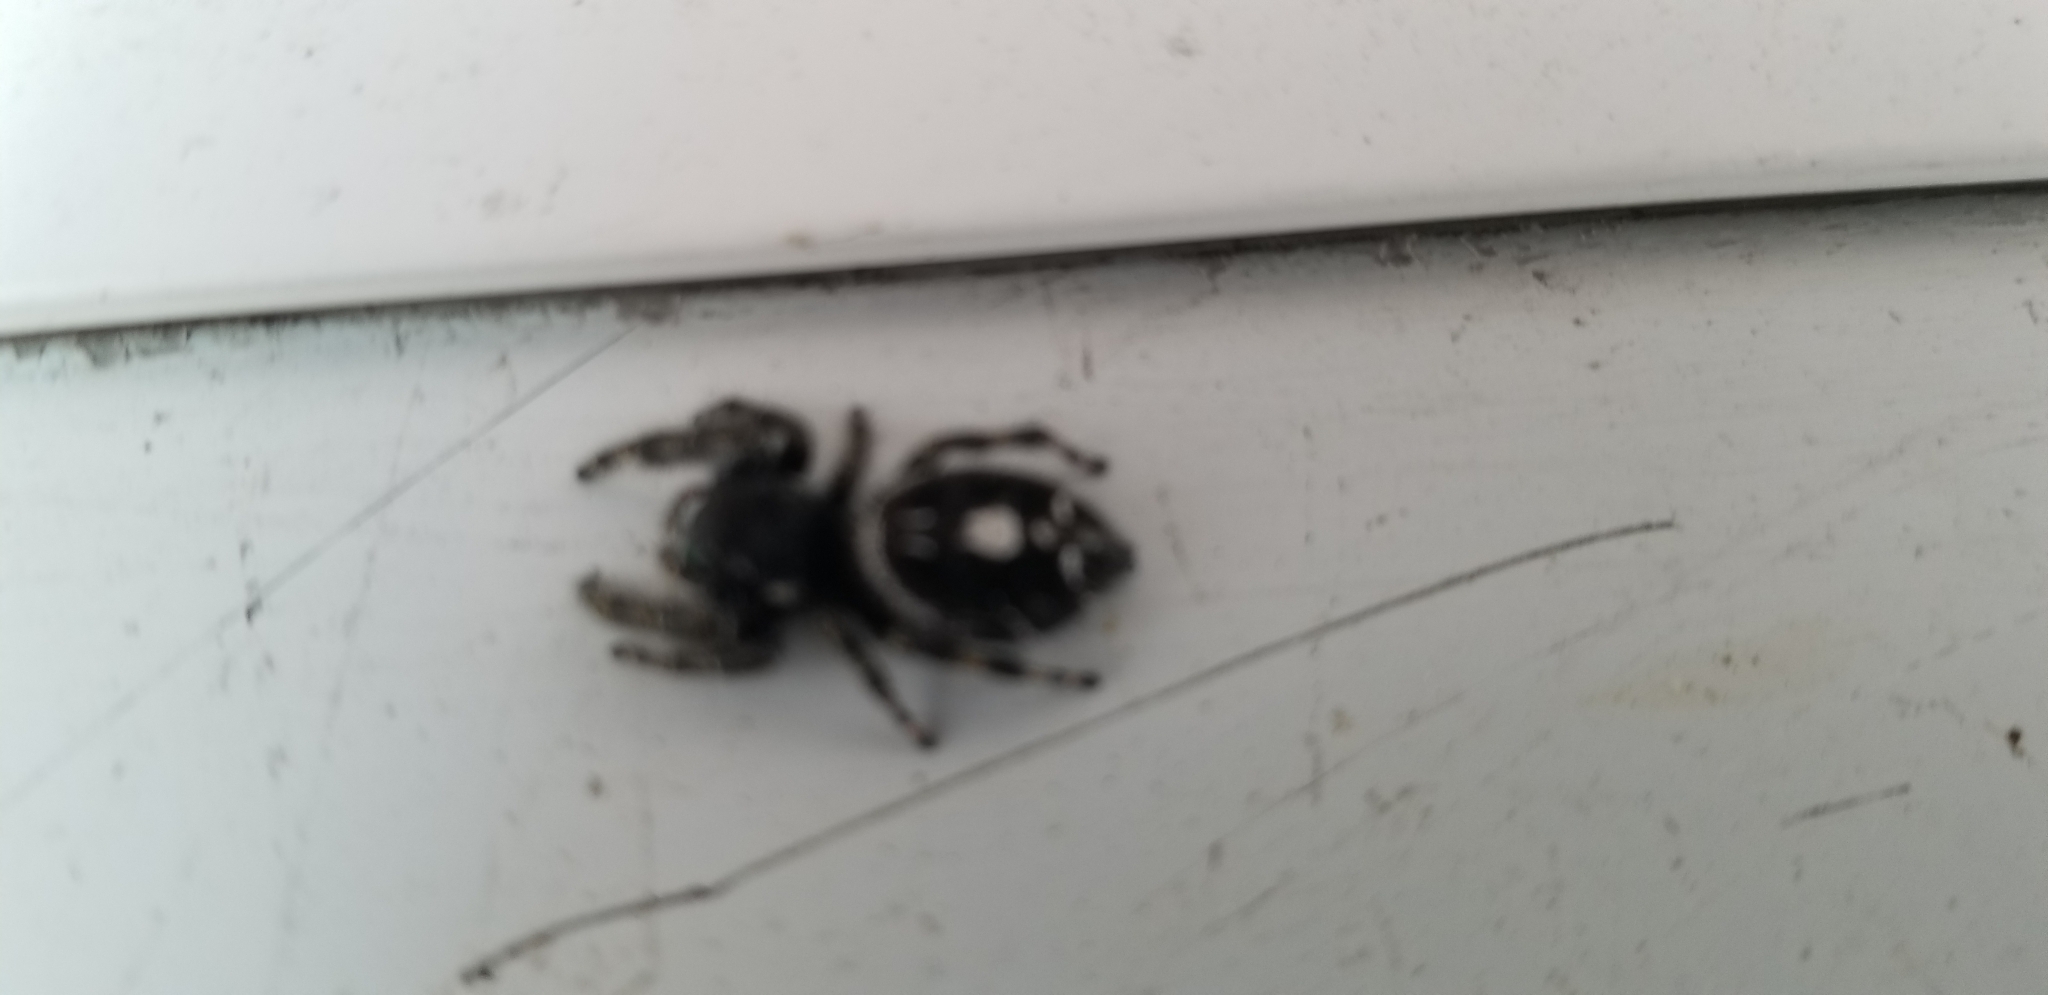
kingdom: Animalia
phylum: Arthropoda
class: Arachnida
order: Araneae
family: Salticidae
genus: Phidippus
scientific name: Phidippus audax
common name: Bold jumper
